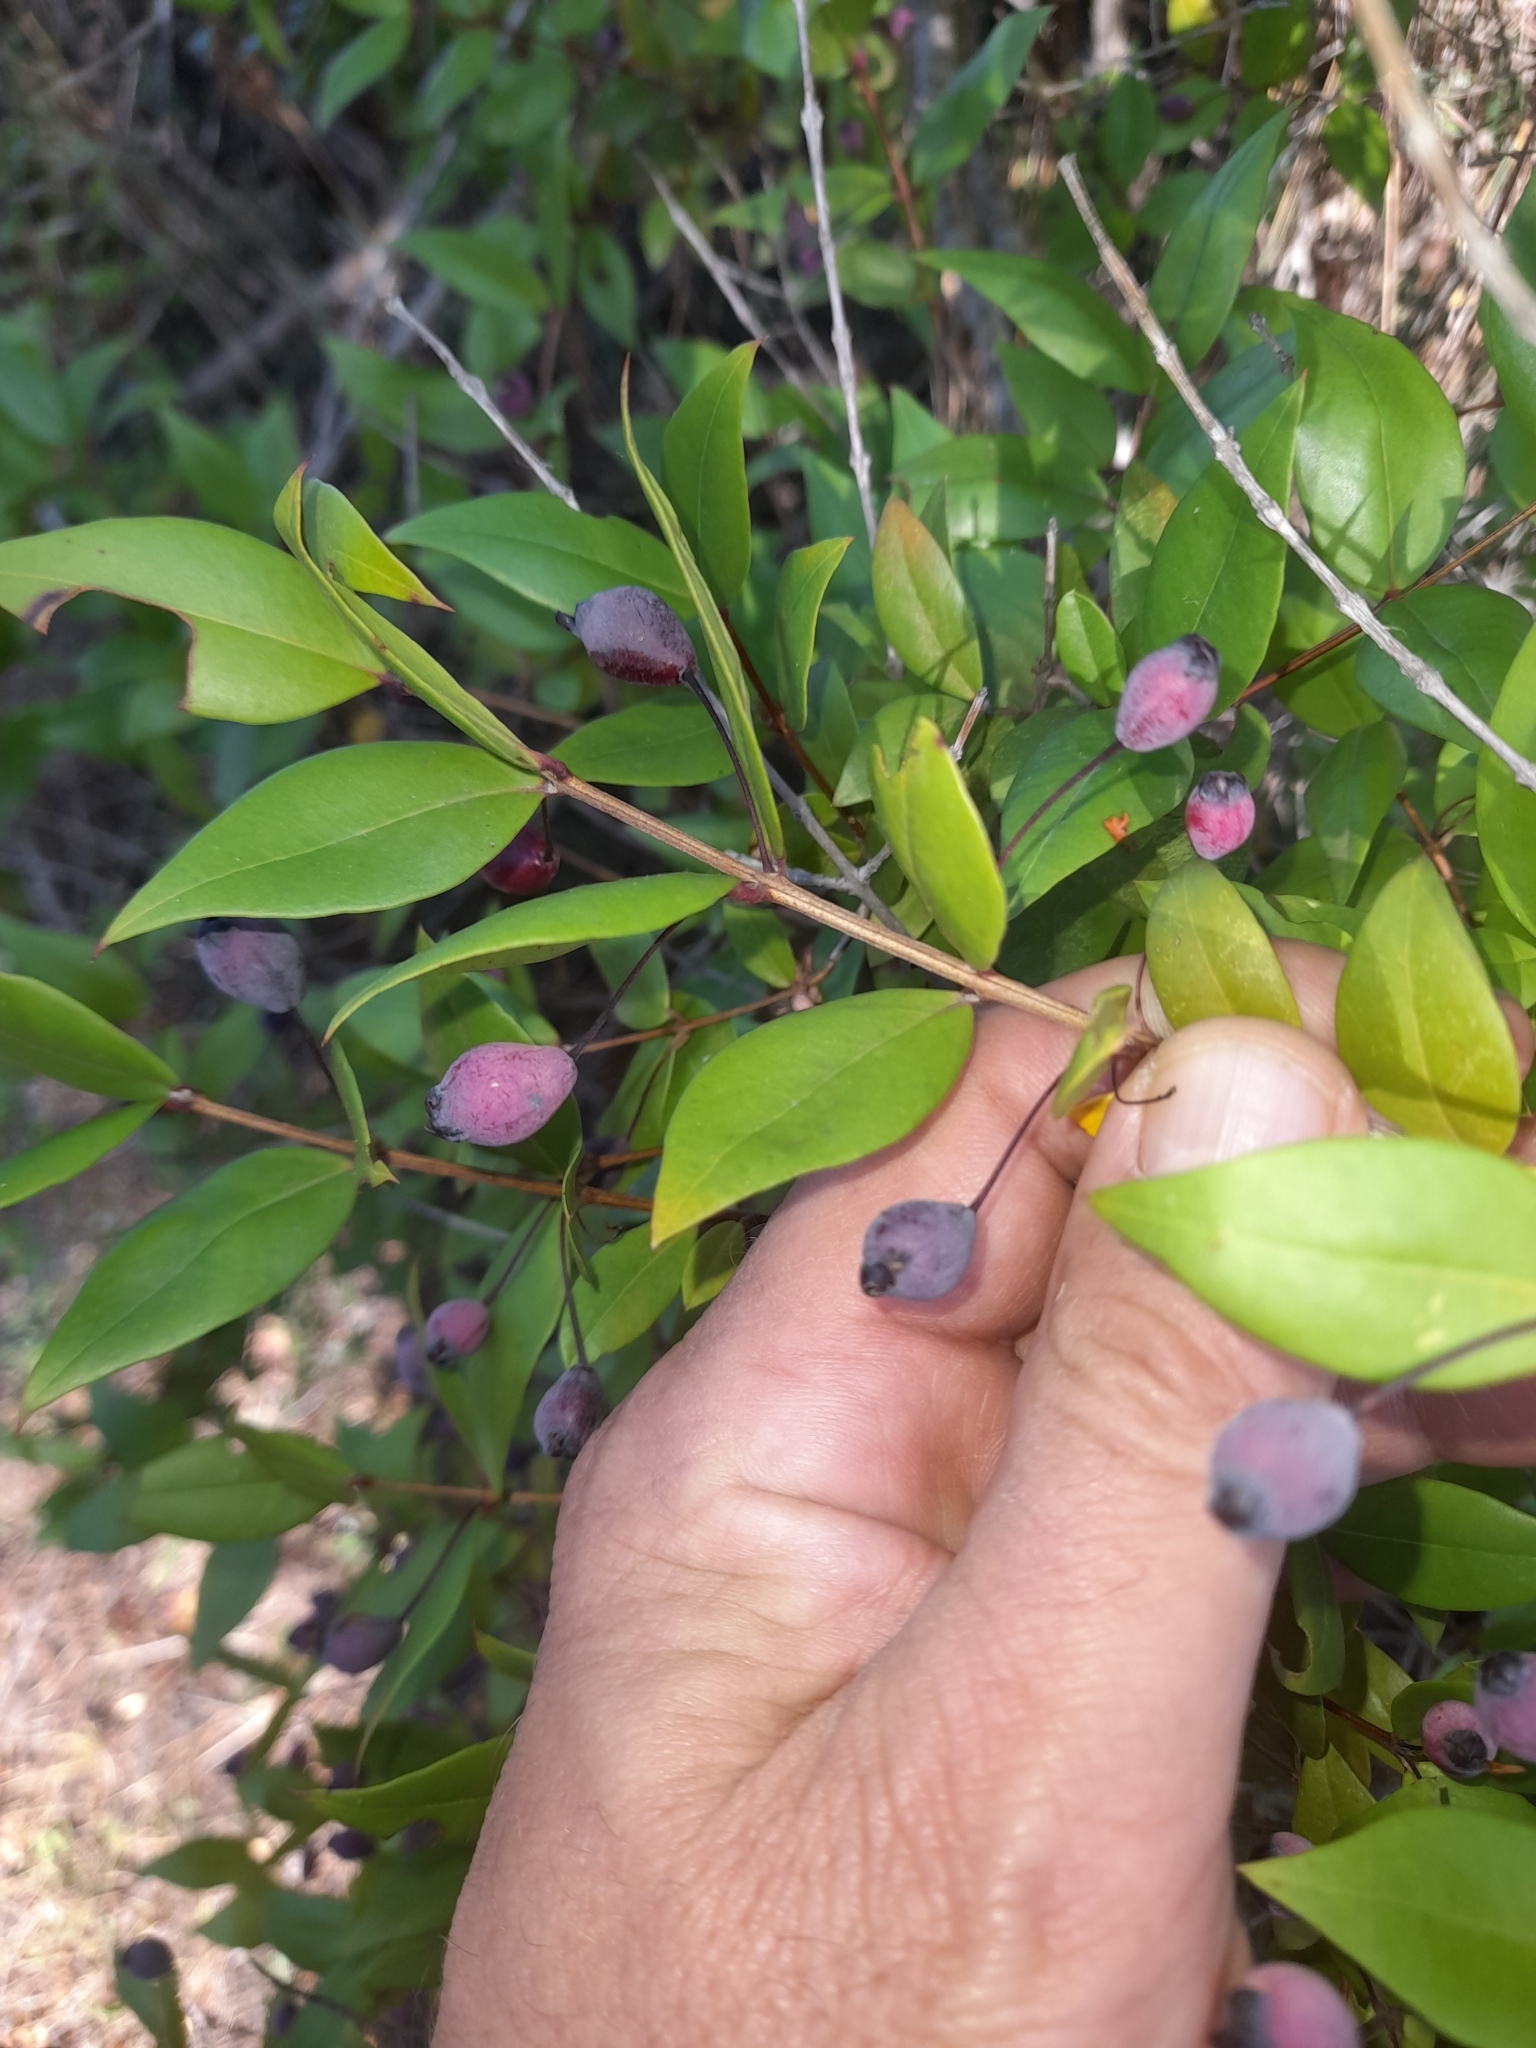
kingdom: Plantae
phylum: Tracheophyta
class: Magnoliopsida
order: Myrtales
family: Myrtaceae
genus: Myrtus
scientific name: Myrtus communis
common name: Myrtle
